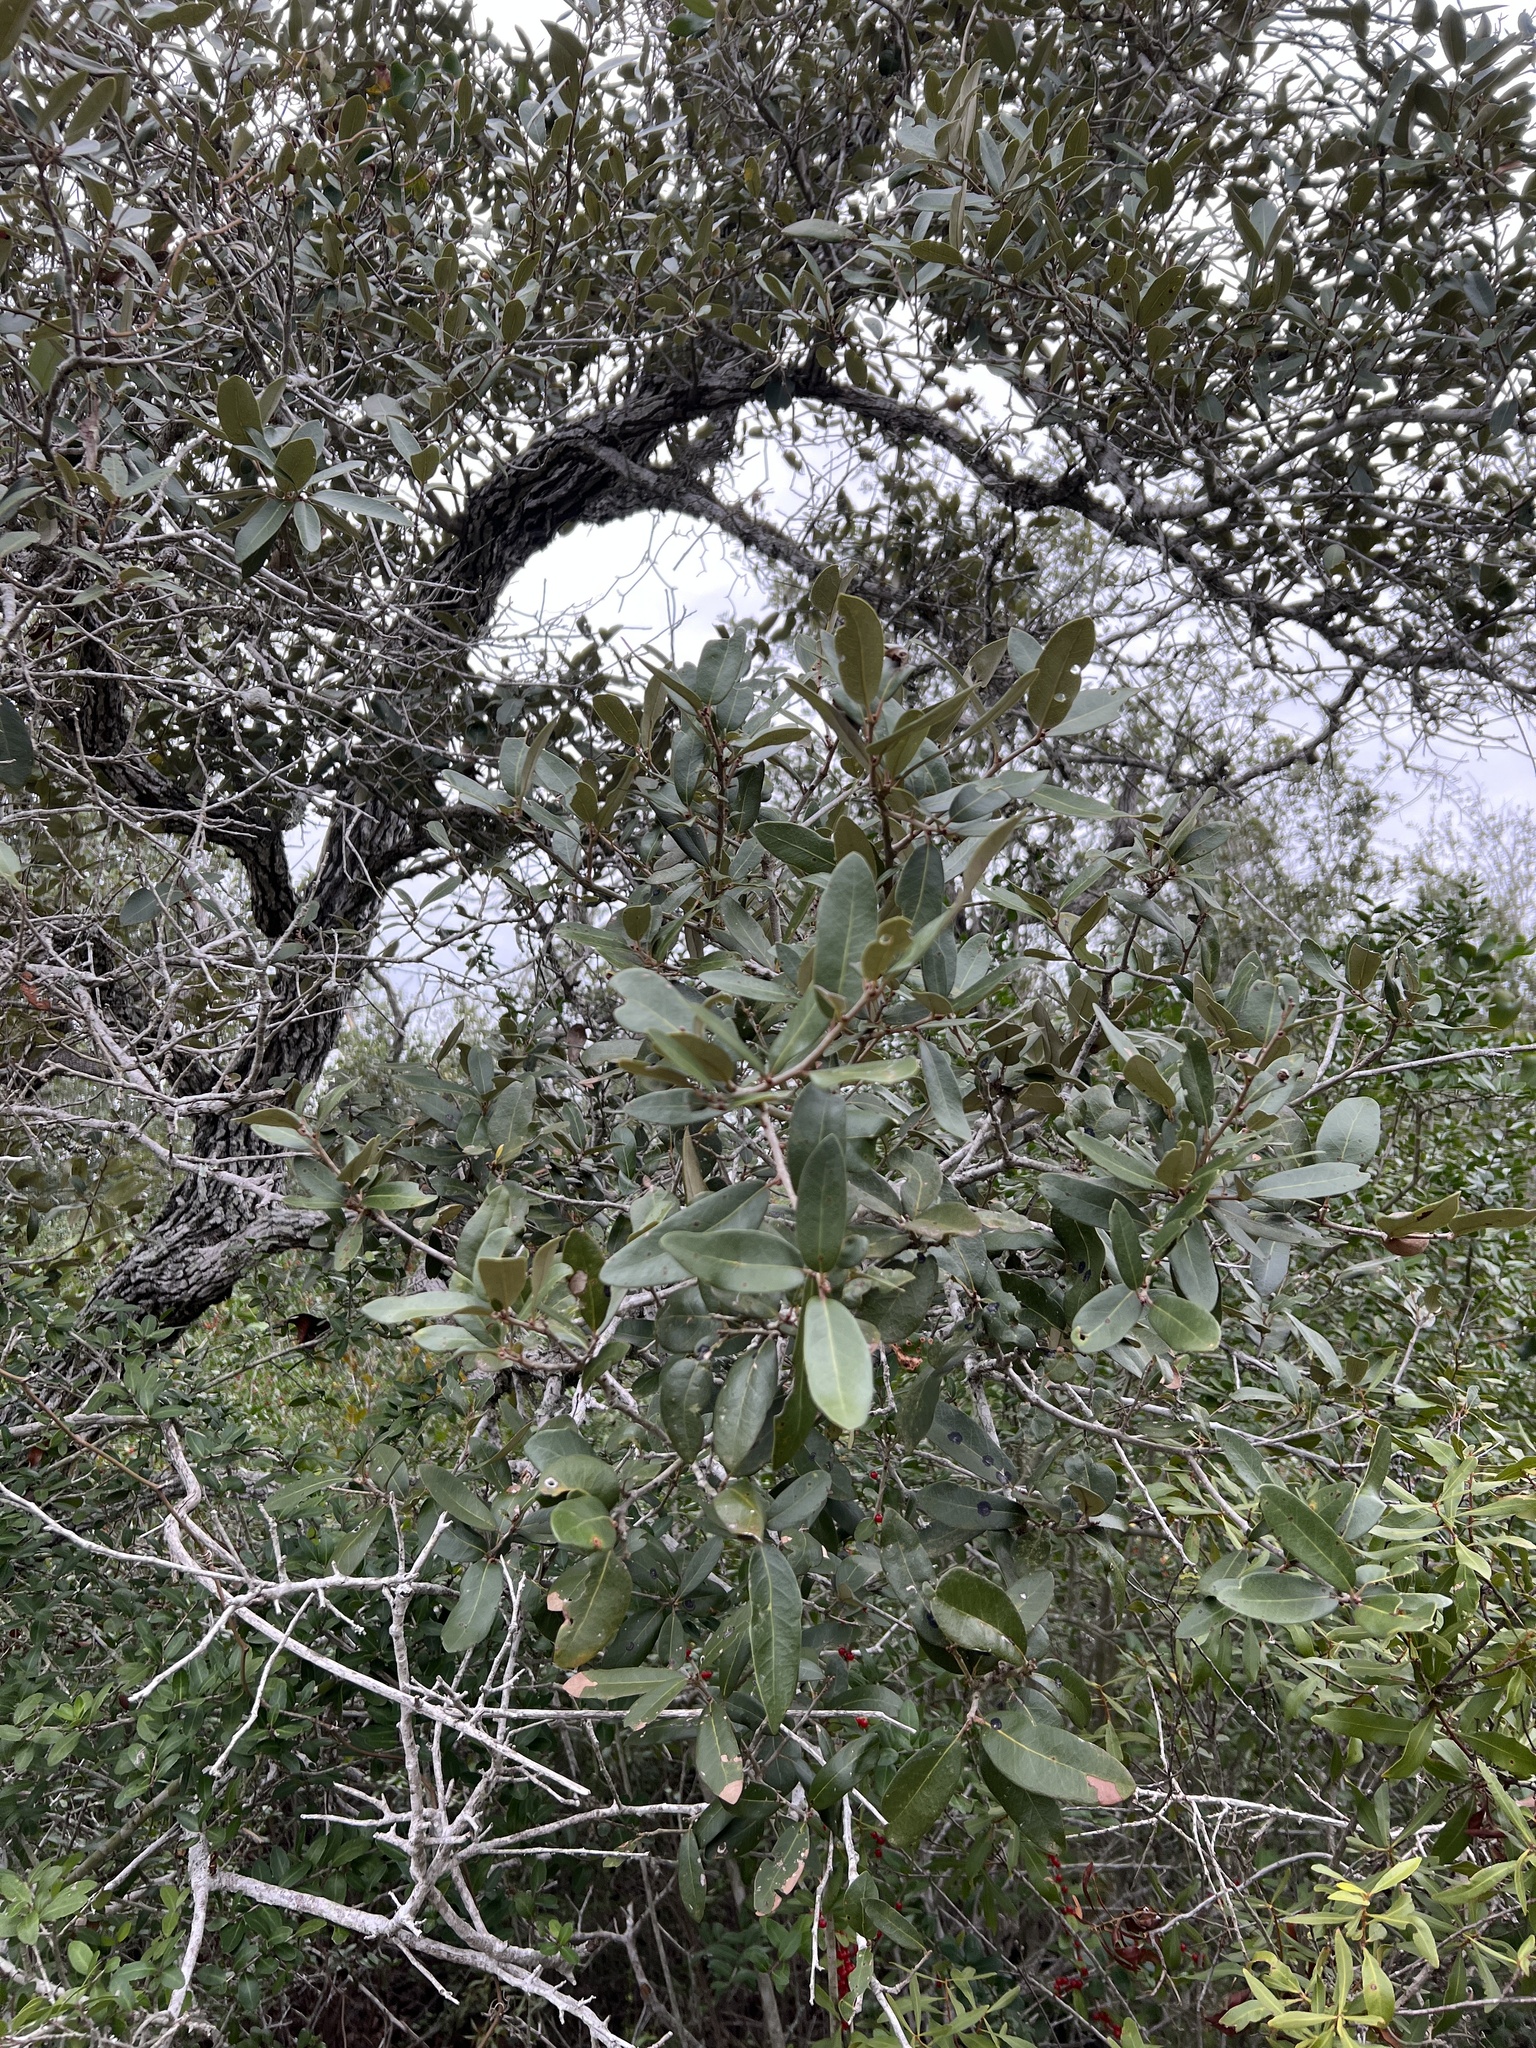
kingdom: Plantae
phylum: Tracheophyta
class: Magnoliopsida
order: Fagales
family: Fagaceae
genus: Quercus
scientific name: Quercus fusiformis
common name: Texas live oak
